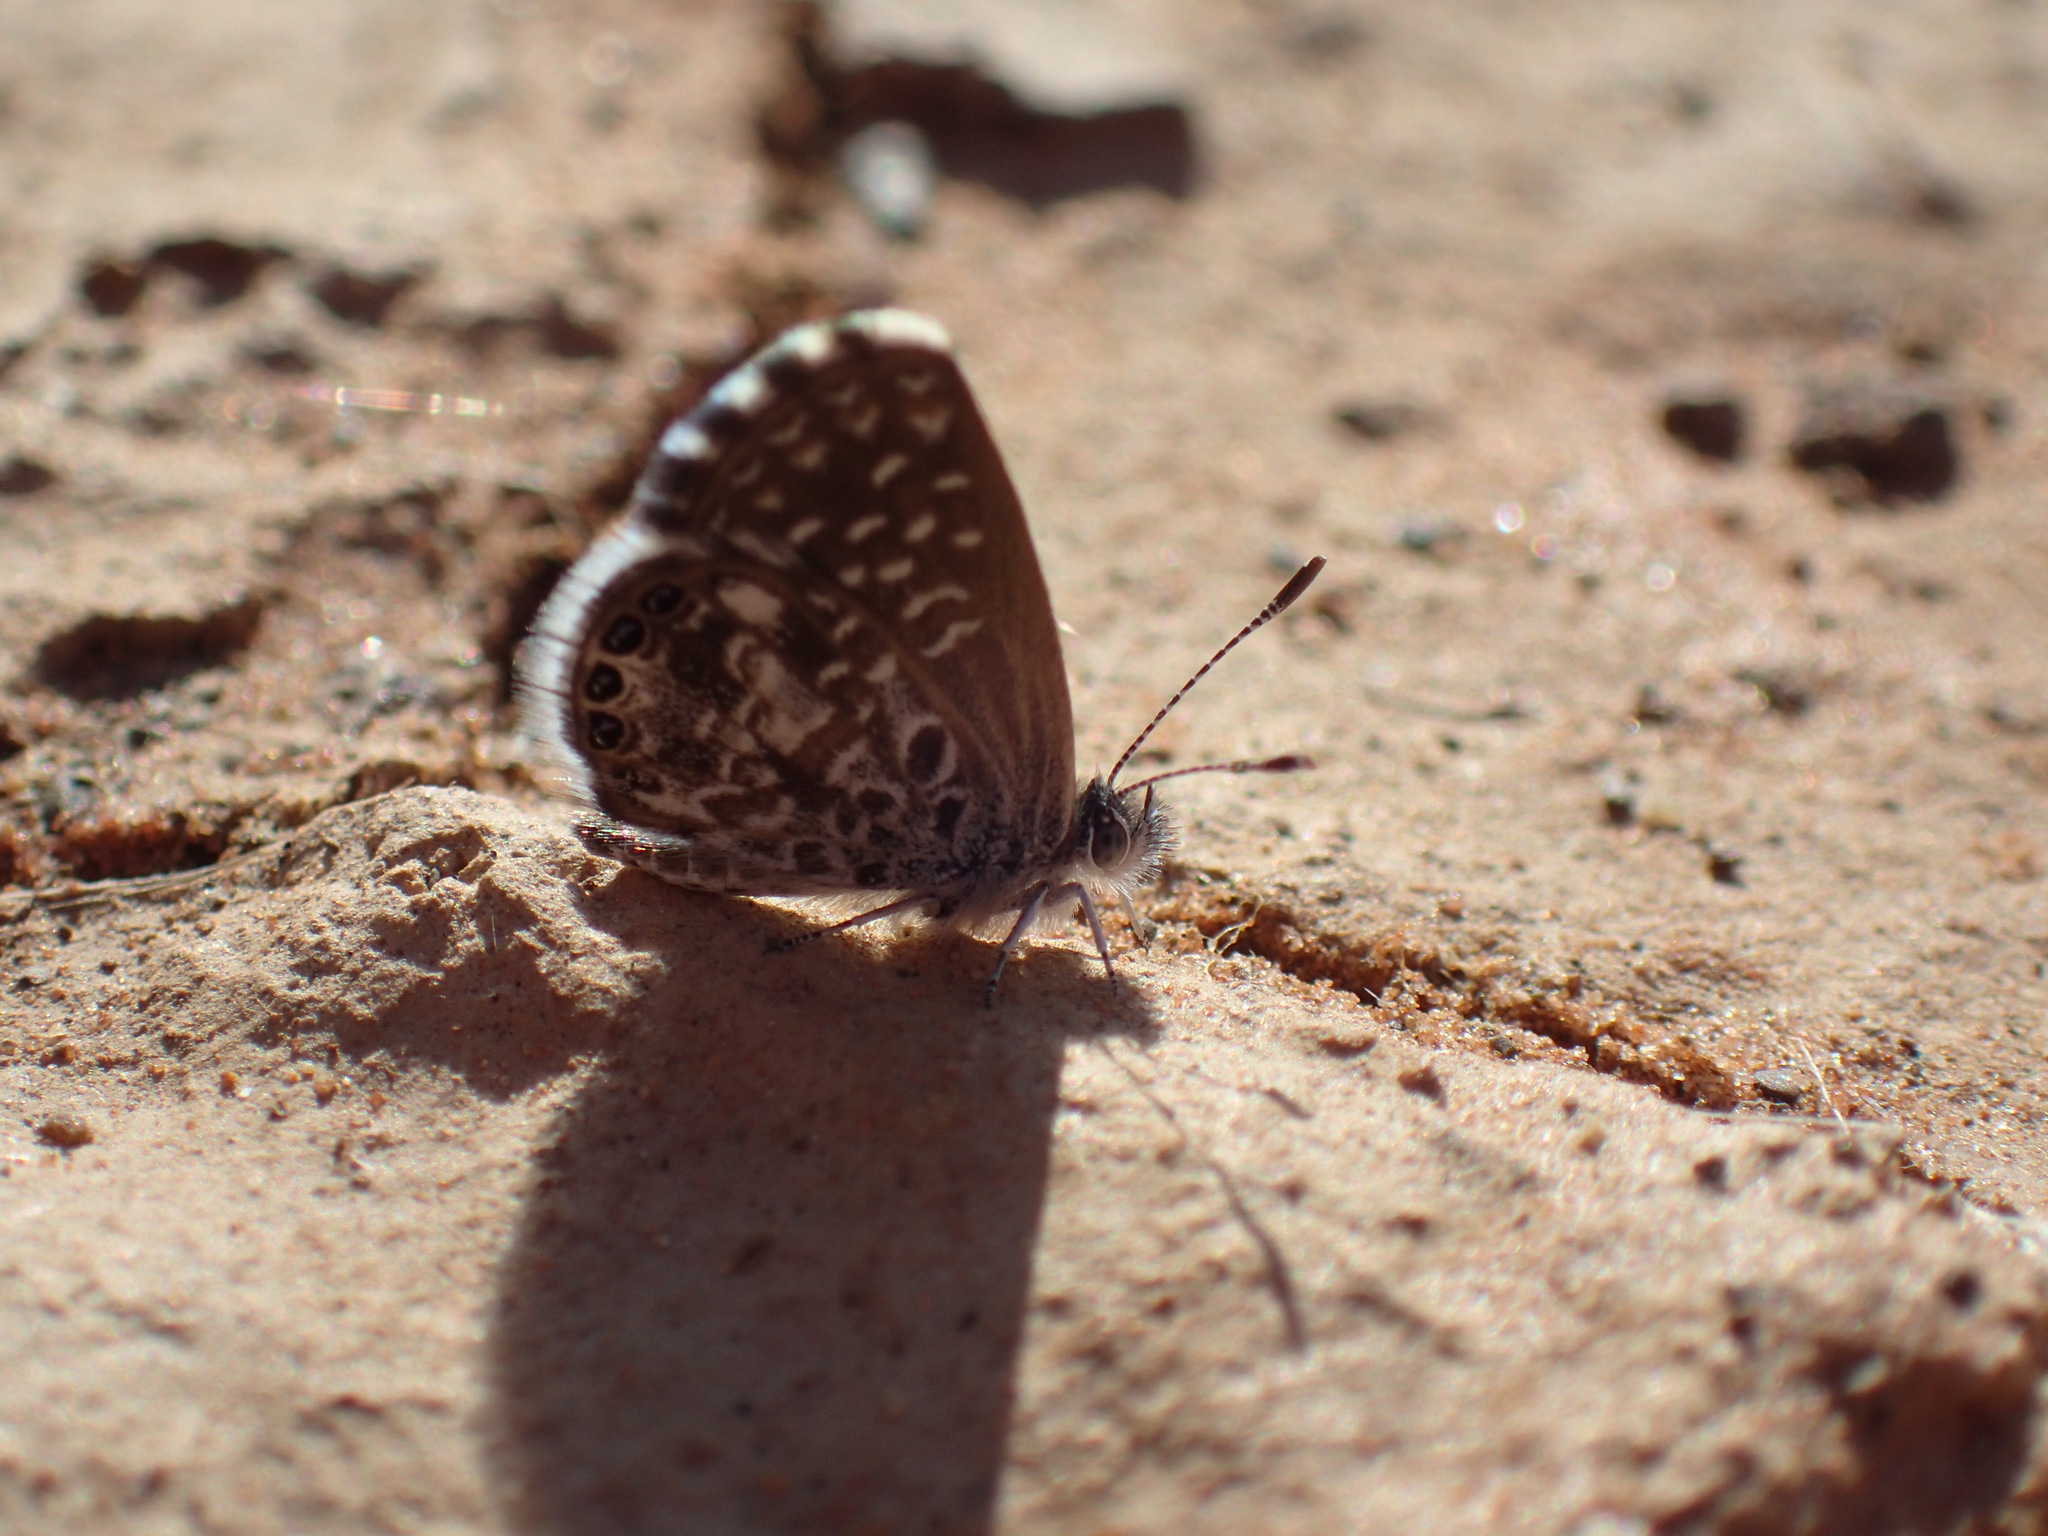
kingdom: Animalia
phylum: Arthropoda
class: Insecta
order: Lepidoptera
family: Lycaenidae
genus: Brephidium
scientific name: Brephidium metophis
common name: Tinktinkie blue
